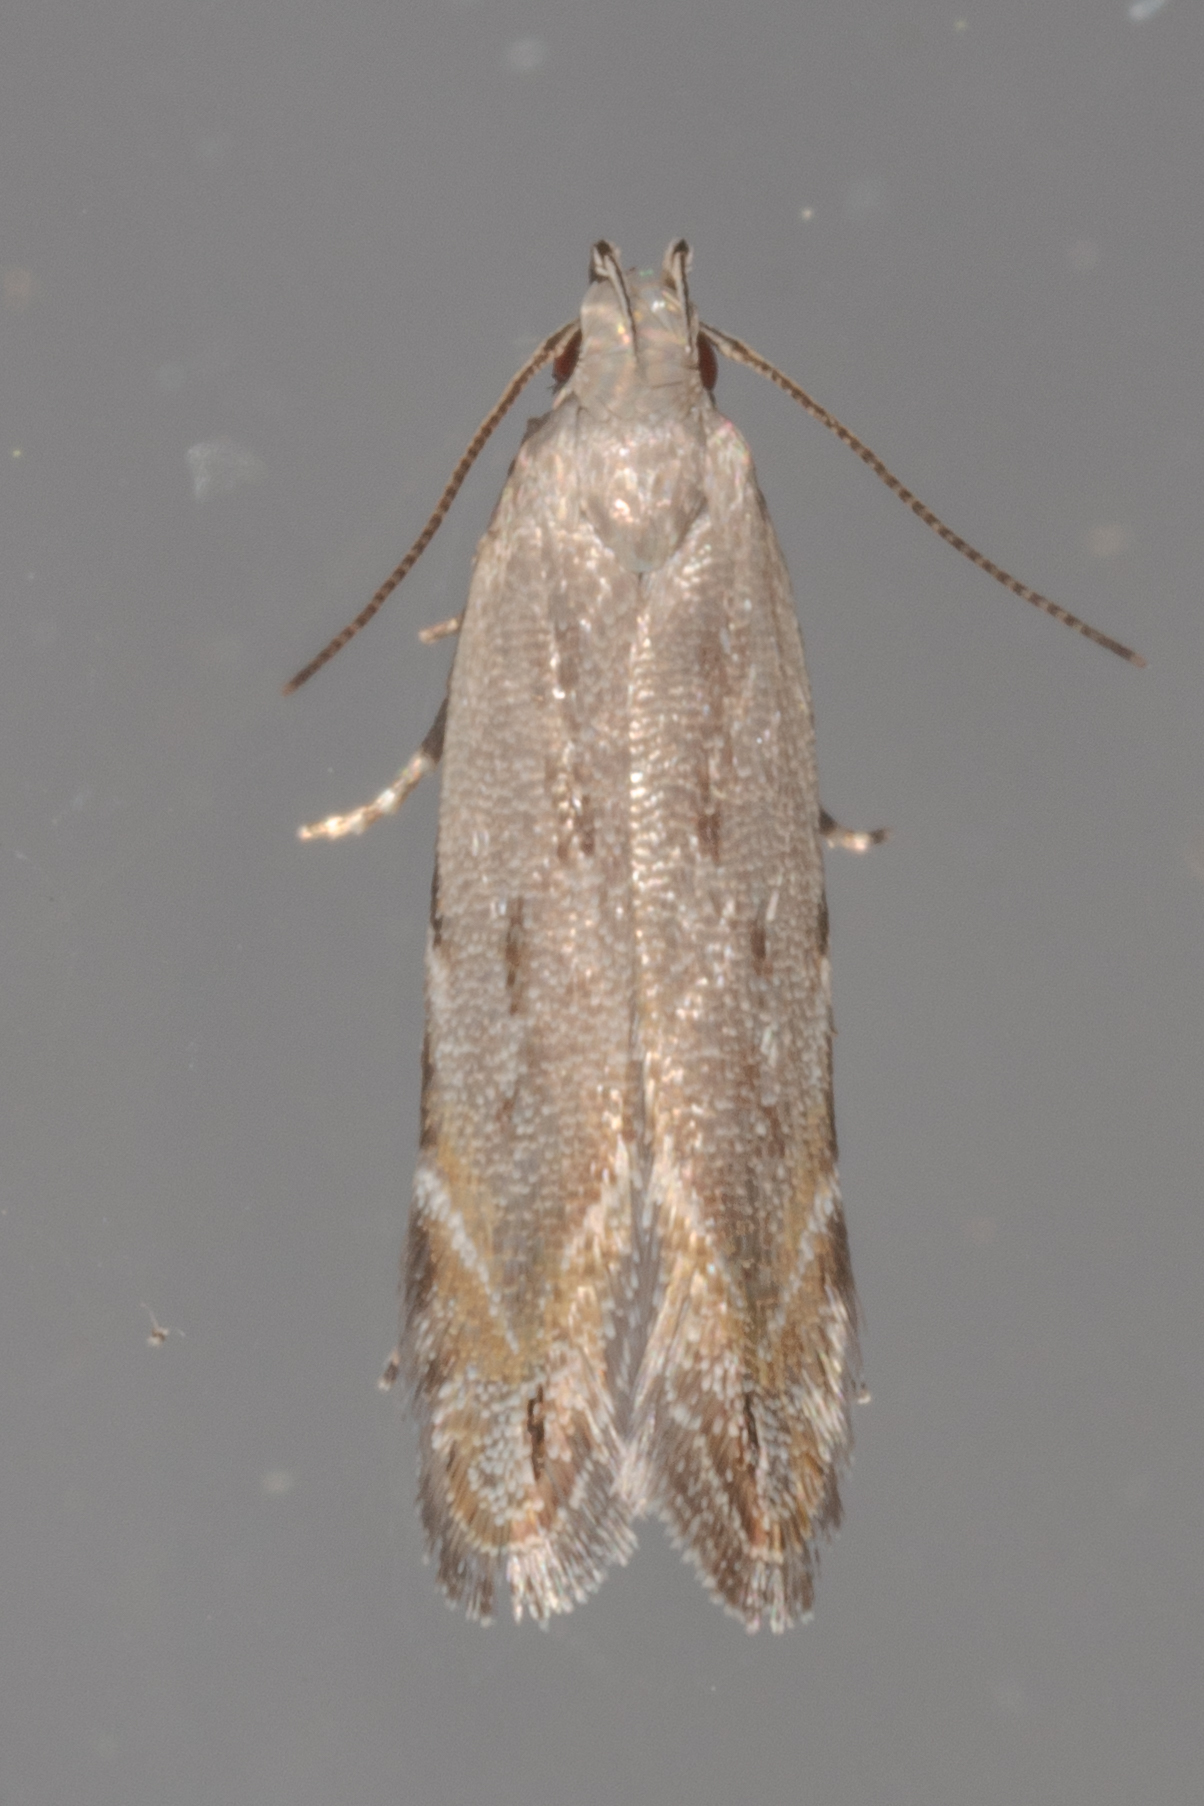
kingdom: Animalia
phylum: Arthropoda
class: Insecta
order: Lepidoptera
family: Gelechiidae
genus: Battaristis
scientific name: Battaristis concinnusella
